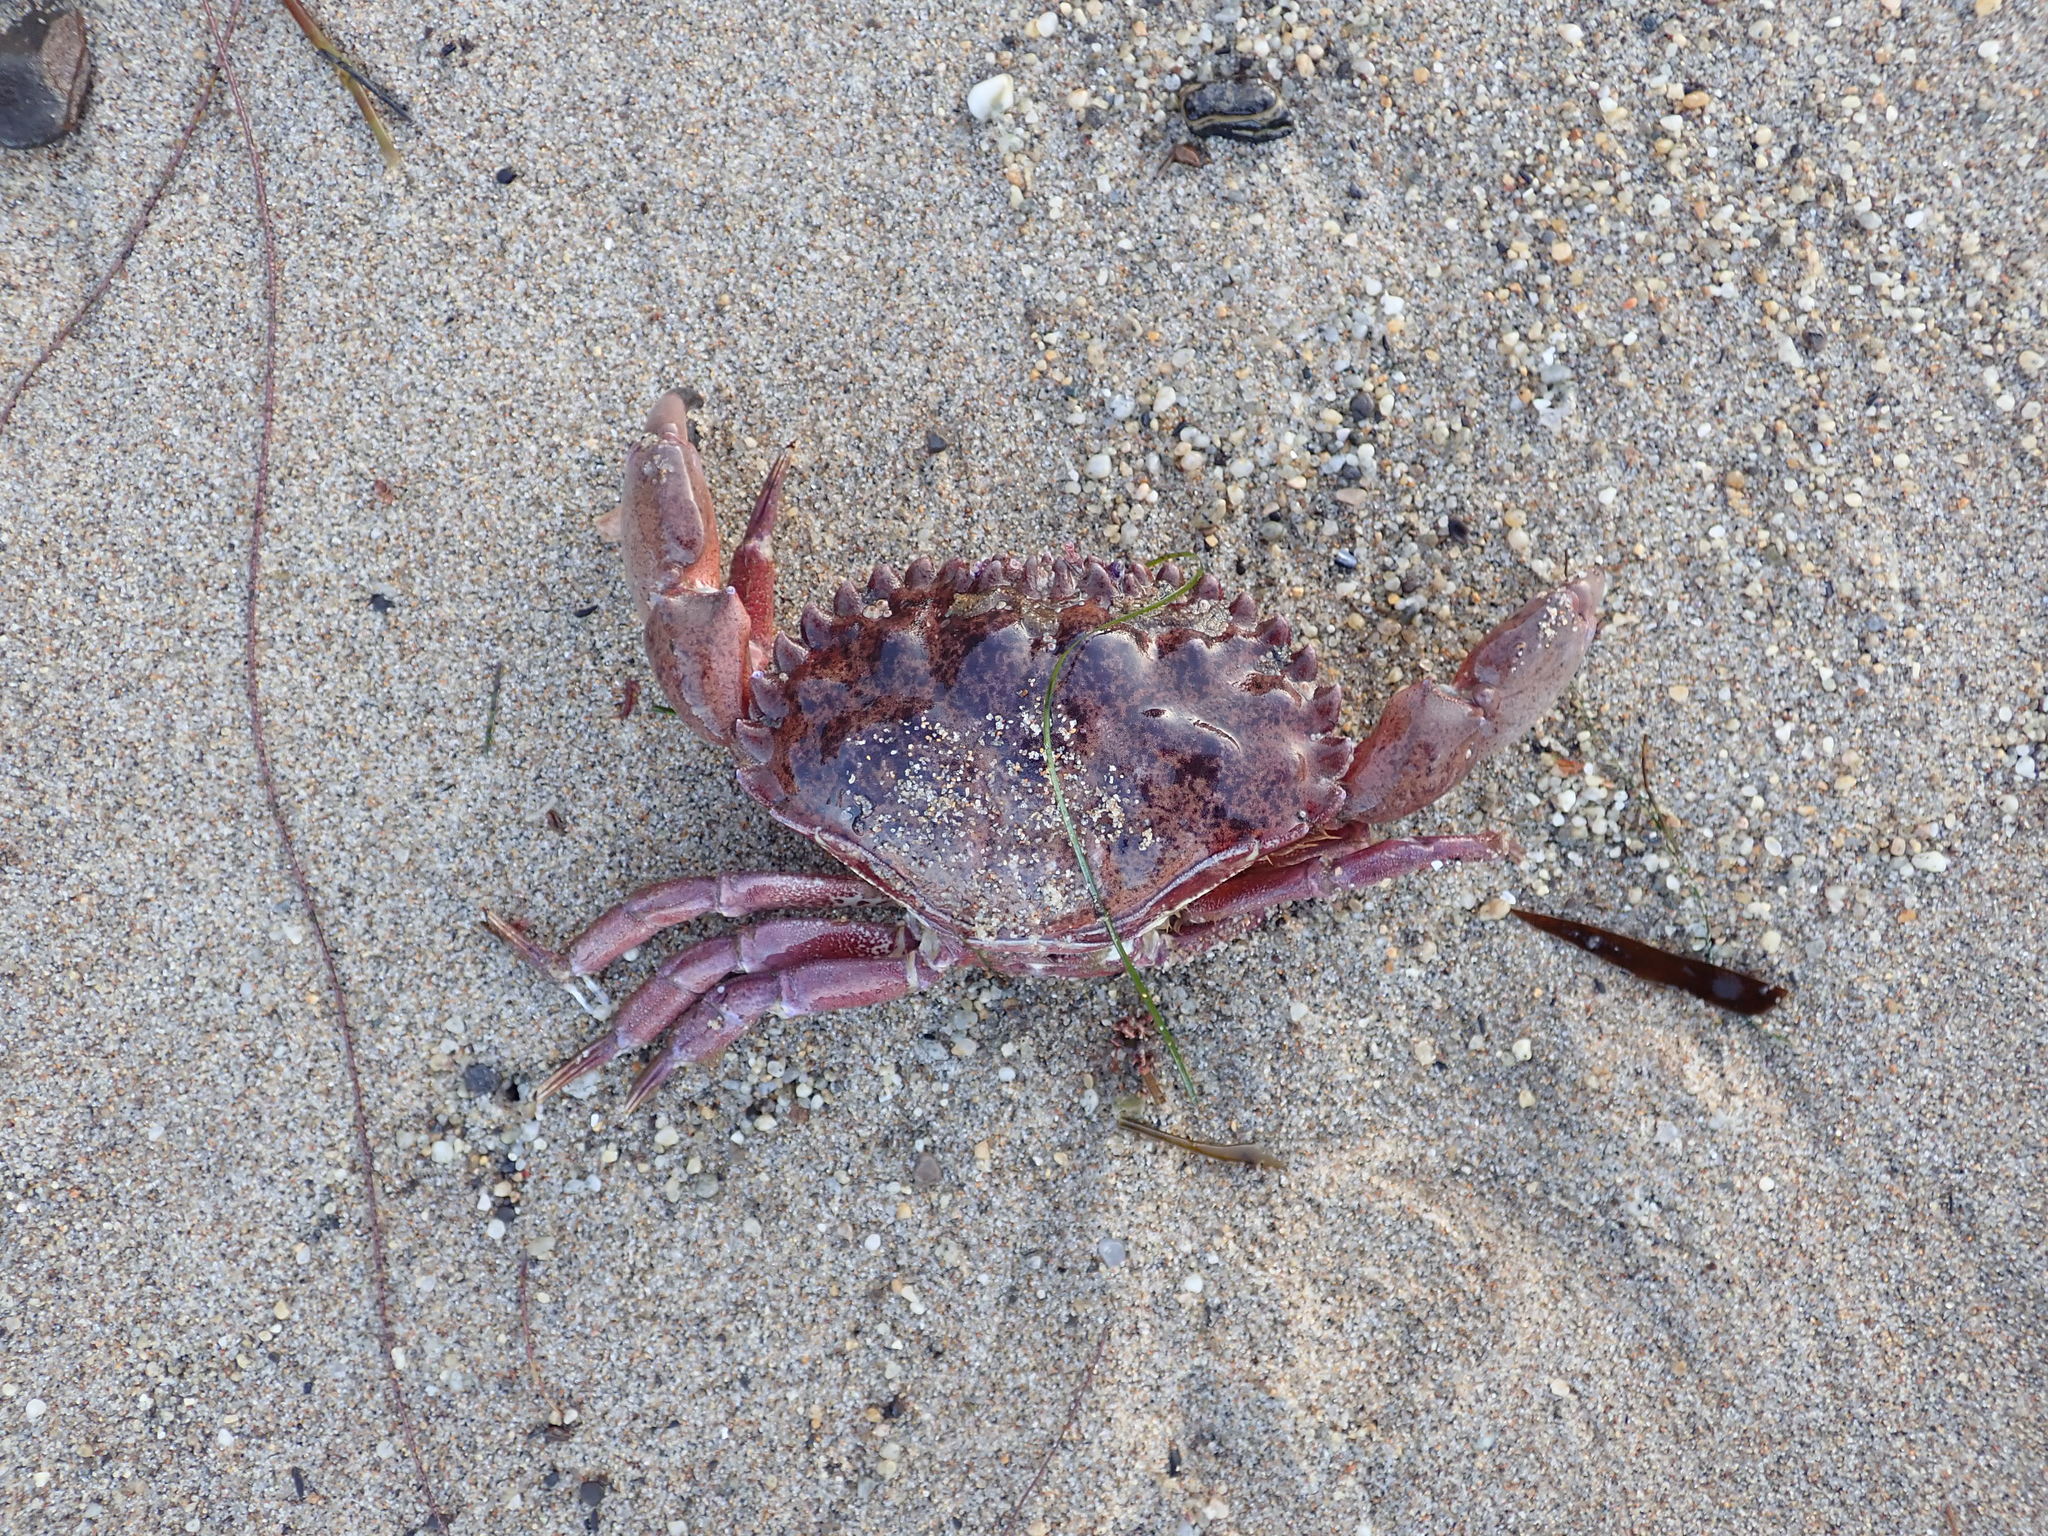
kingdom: Animalia
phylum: Arthropoda
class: Malacostraca
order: Decapoda
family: Cancridae
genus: Romaleon
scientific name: Romaleon antennarium
